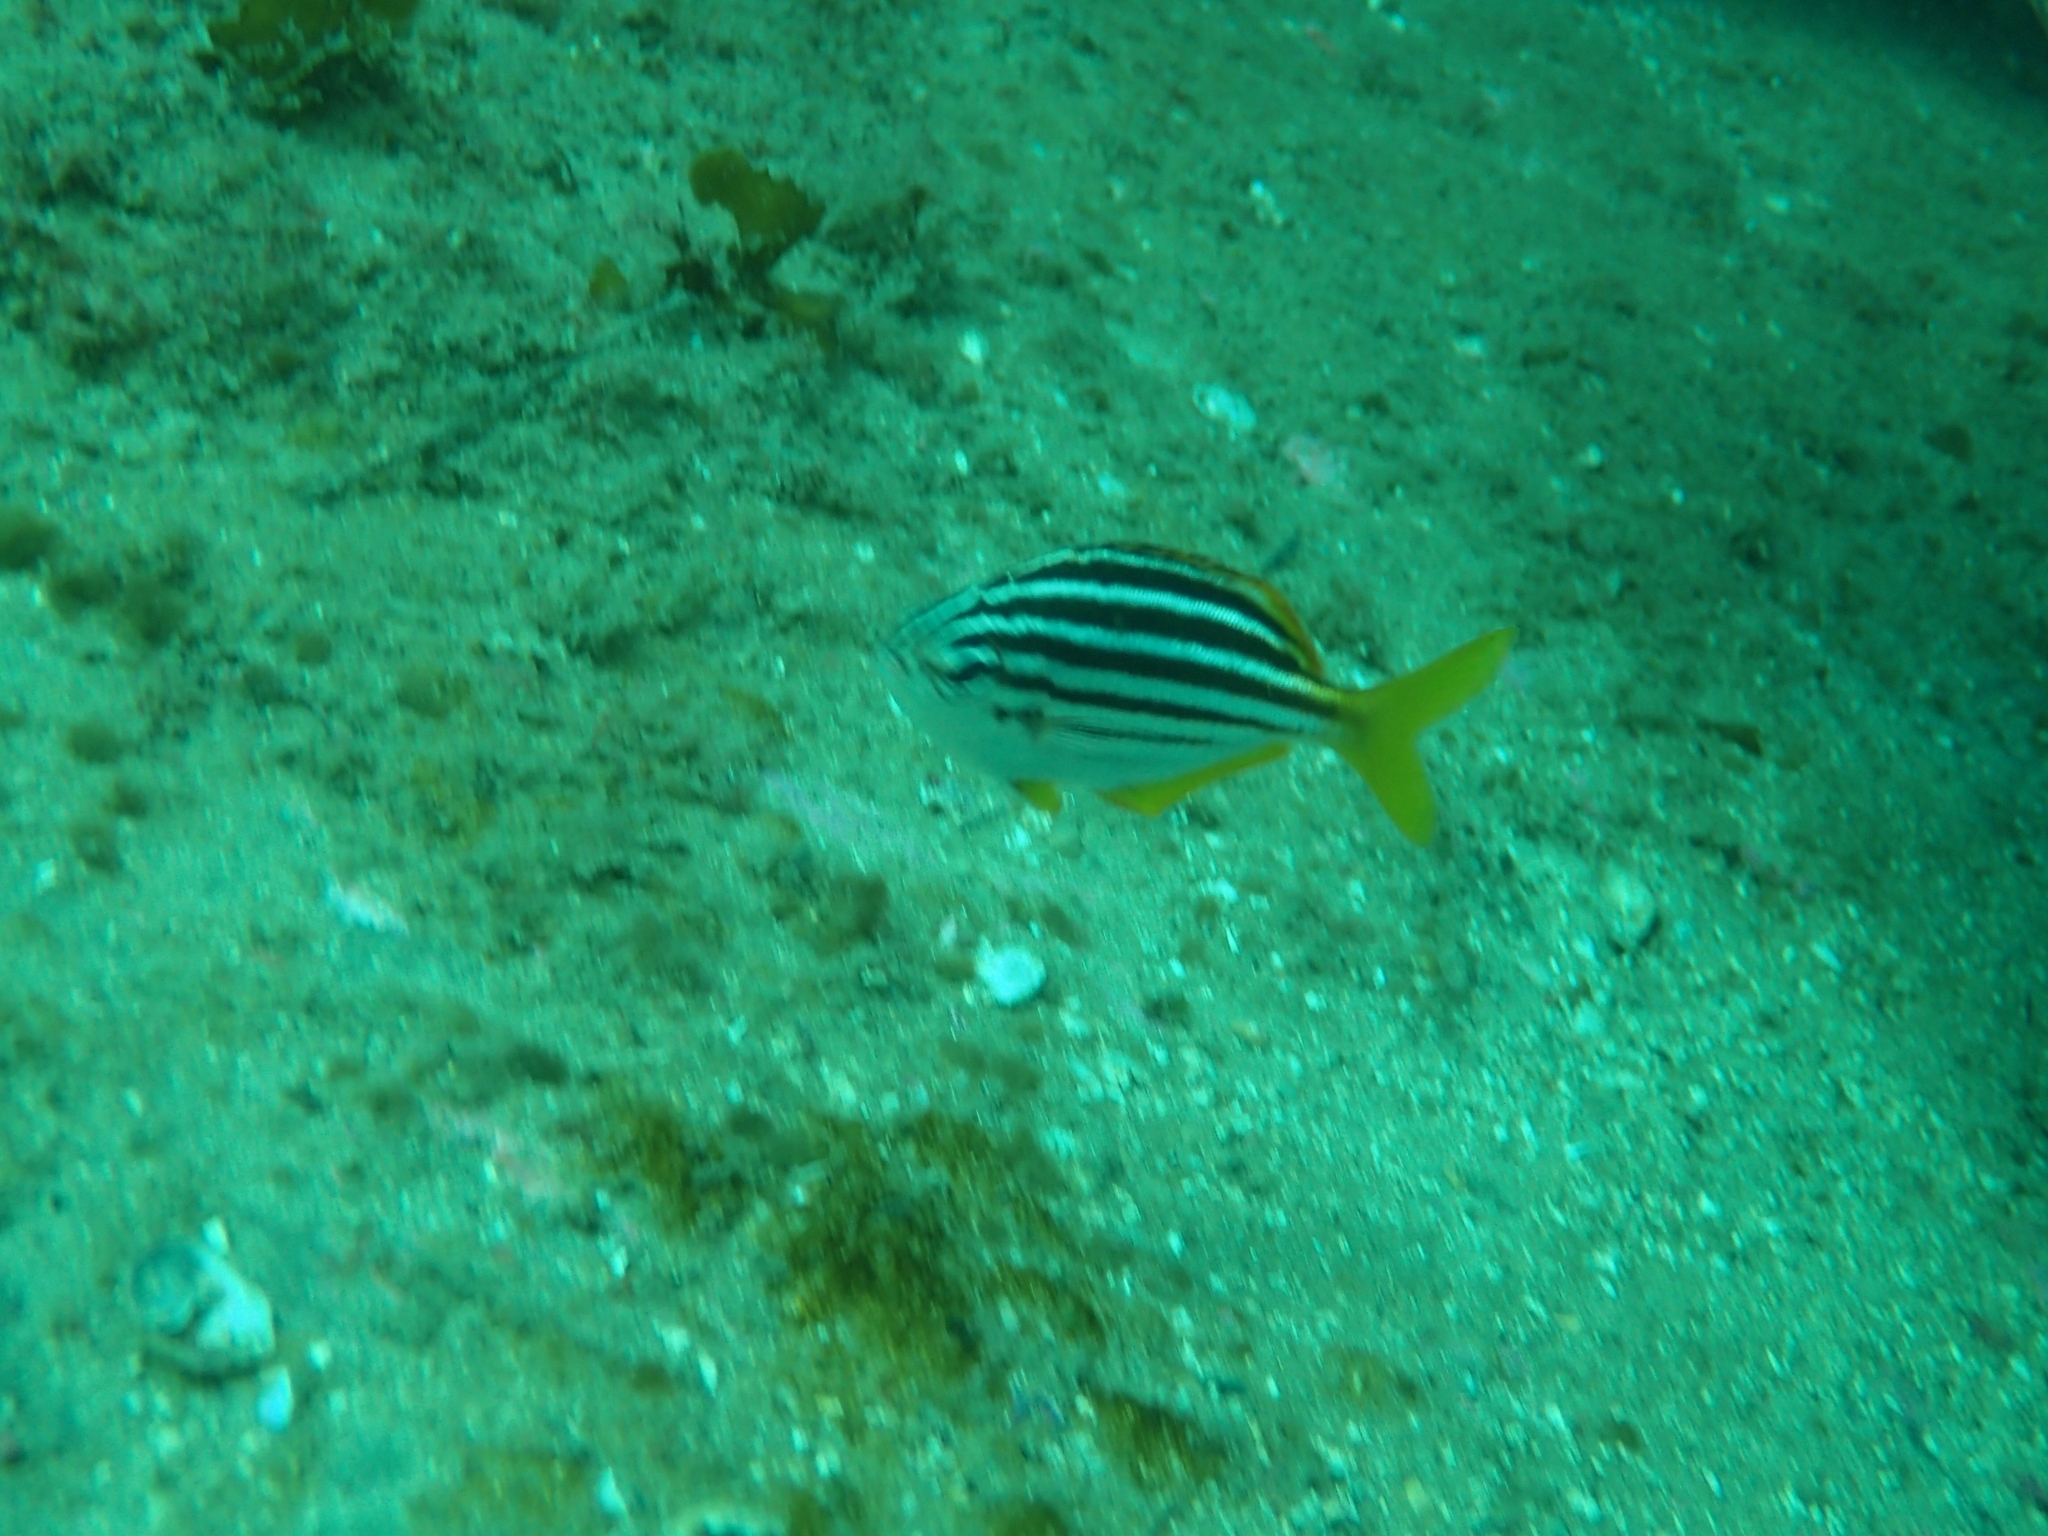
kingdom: Animalia
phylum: Chordata
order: Perciformes
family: Kyphosidae
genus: Atypichthys
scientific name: Atypichthys strigatus
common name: Australian mado
